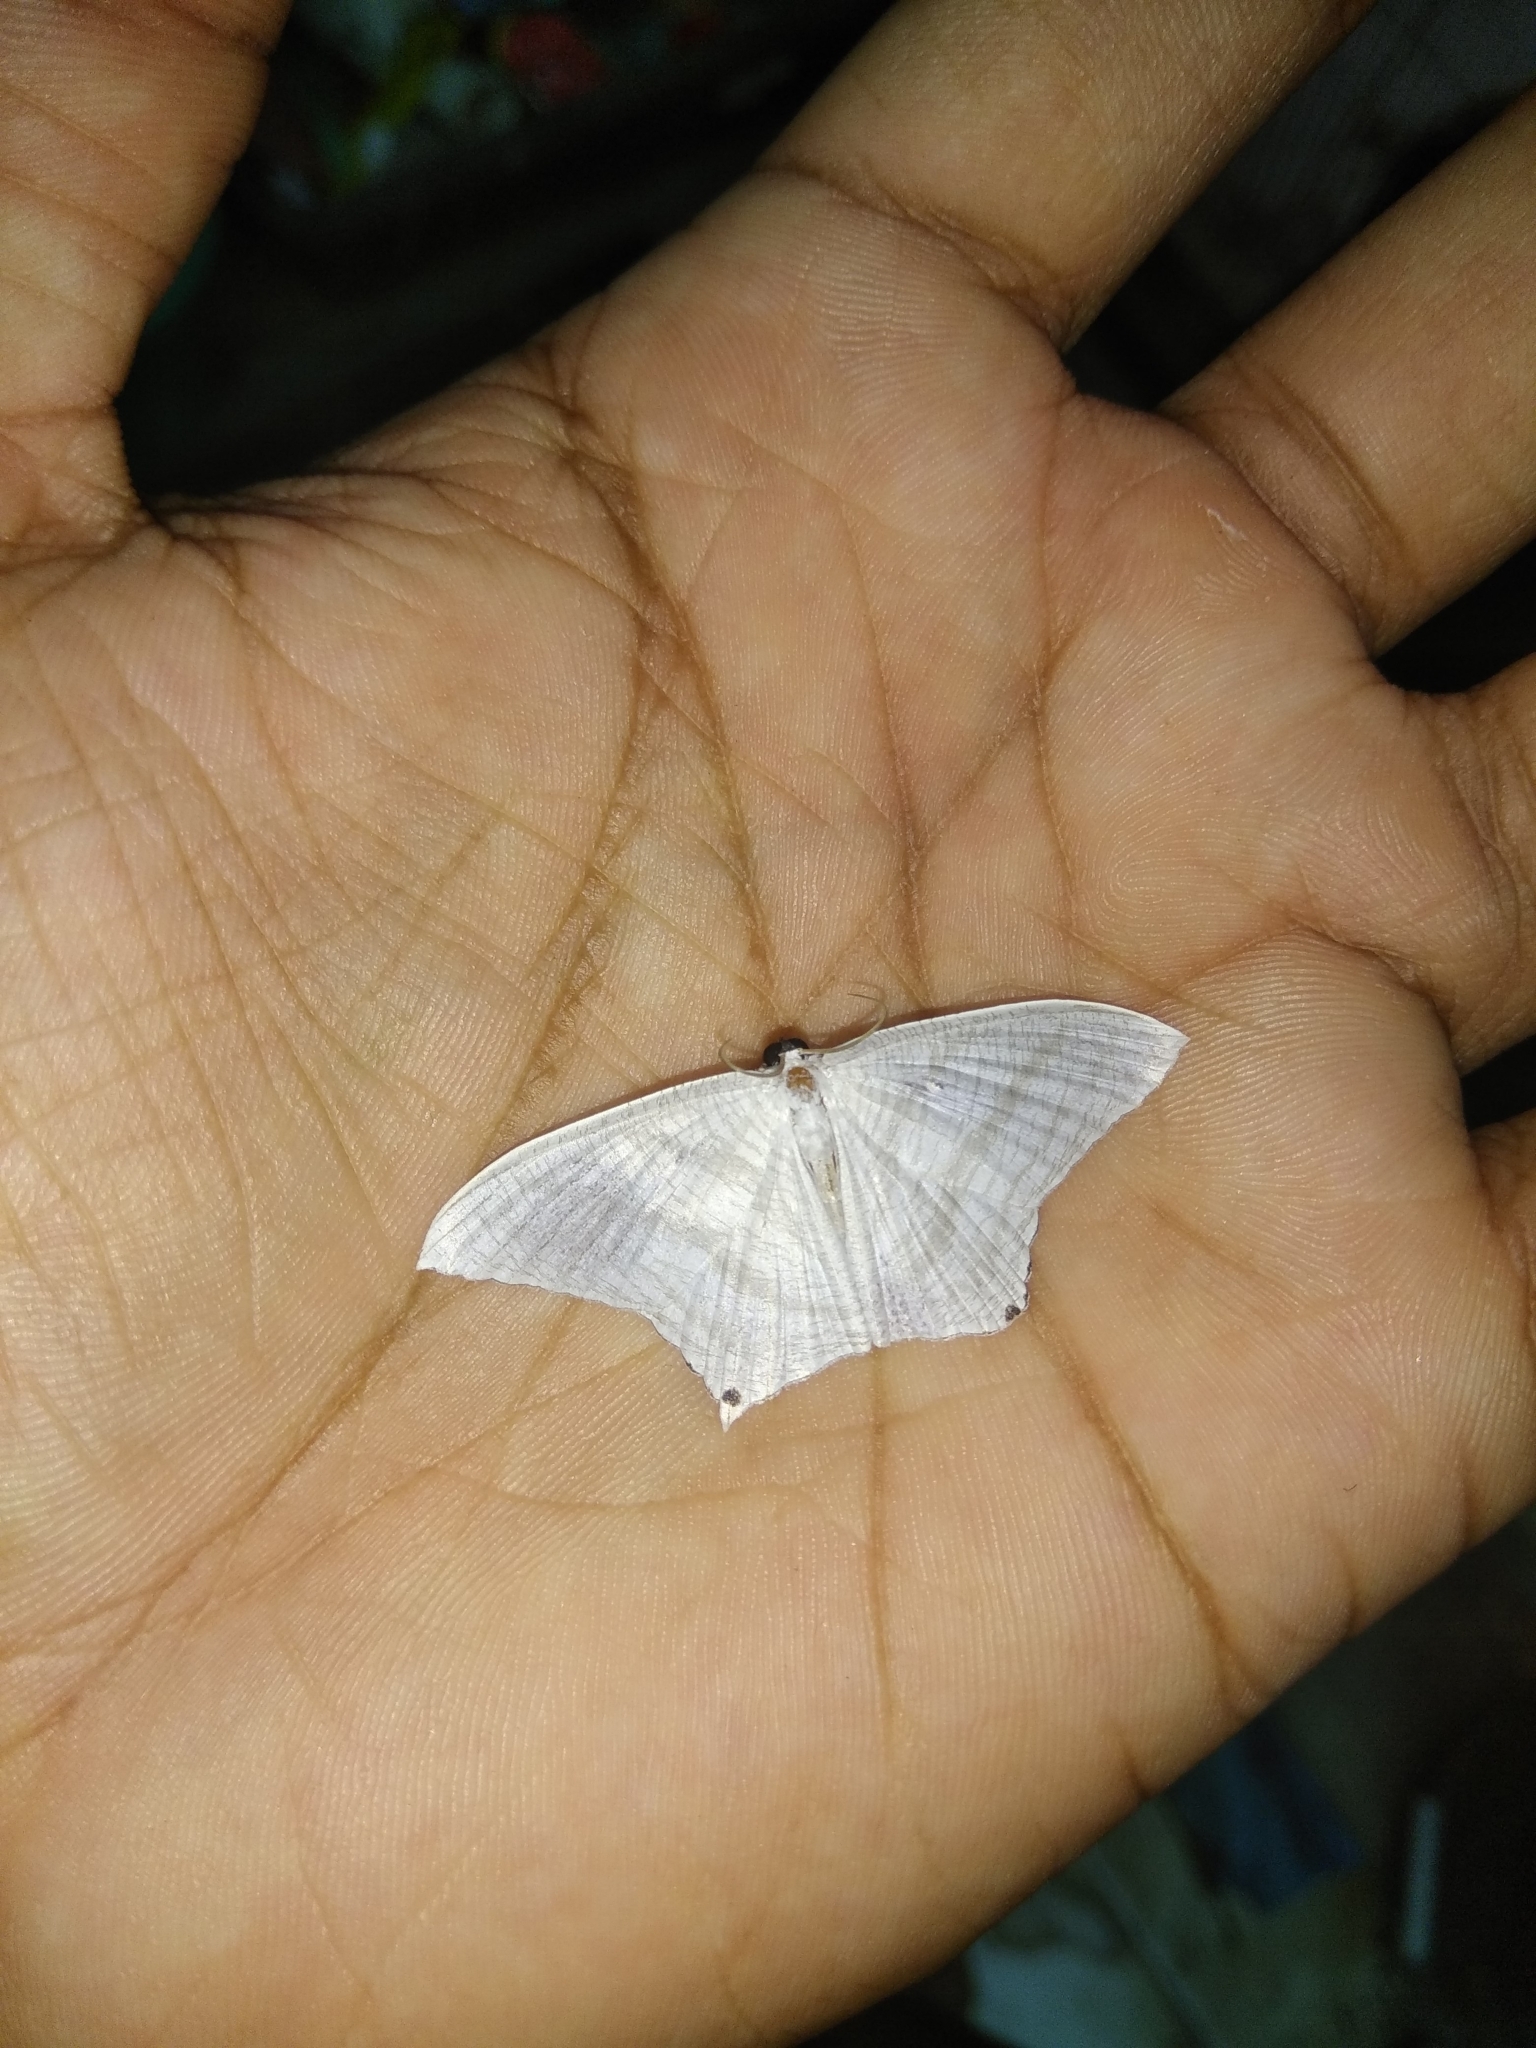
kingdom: Animalia
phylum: Arthropoda
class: Insecta
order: Lepidoptera
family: Uraniidae
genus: Micronia
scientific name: Micronia aculeata
